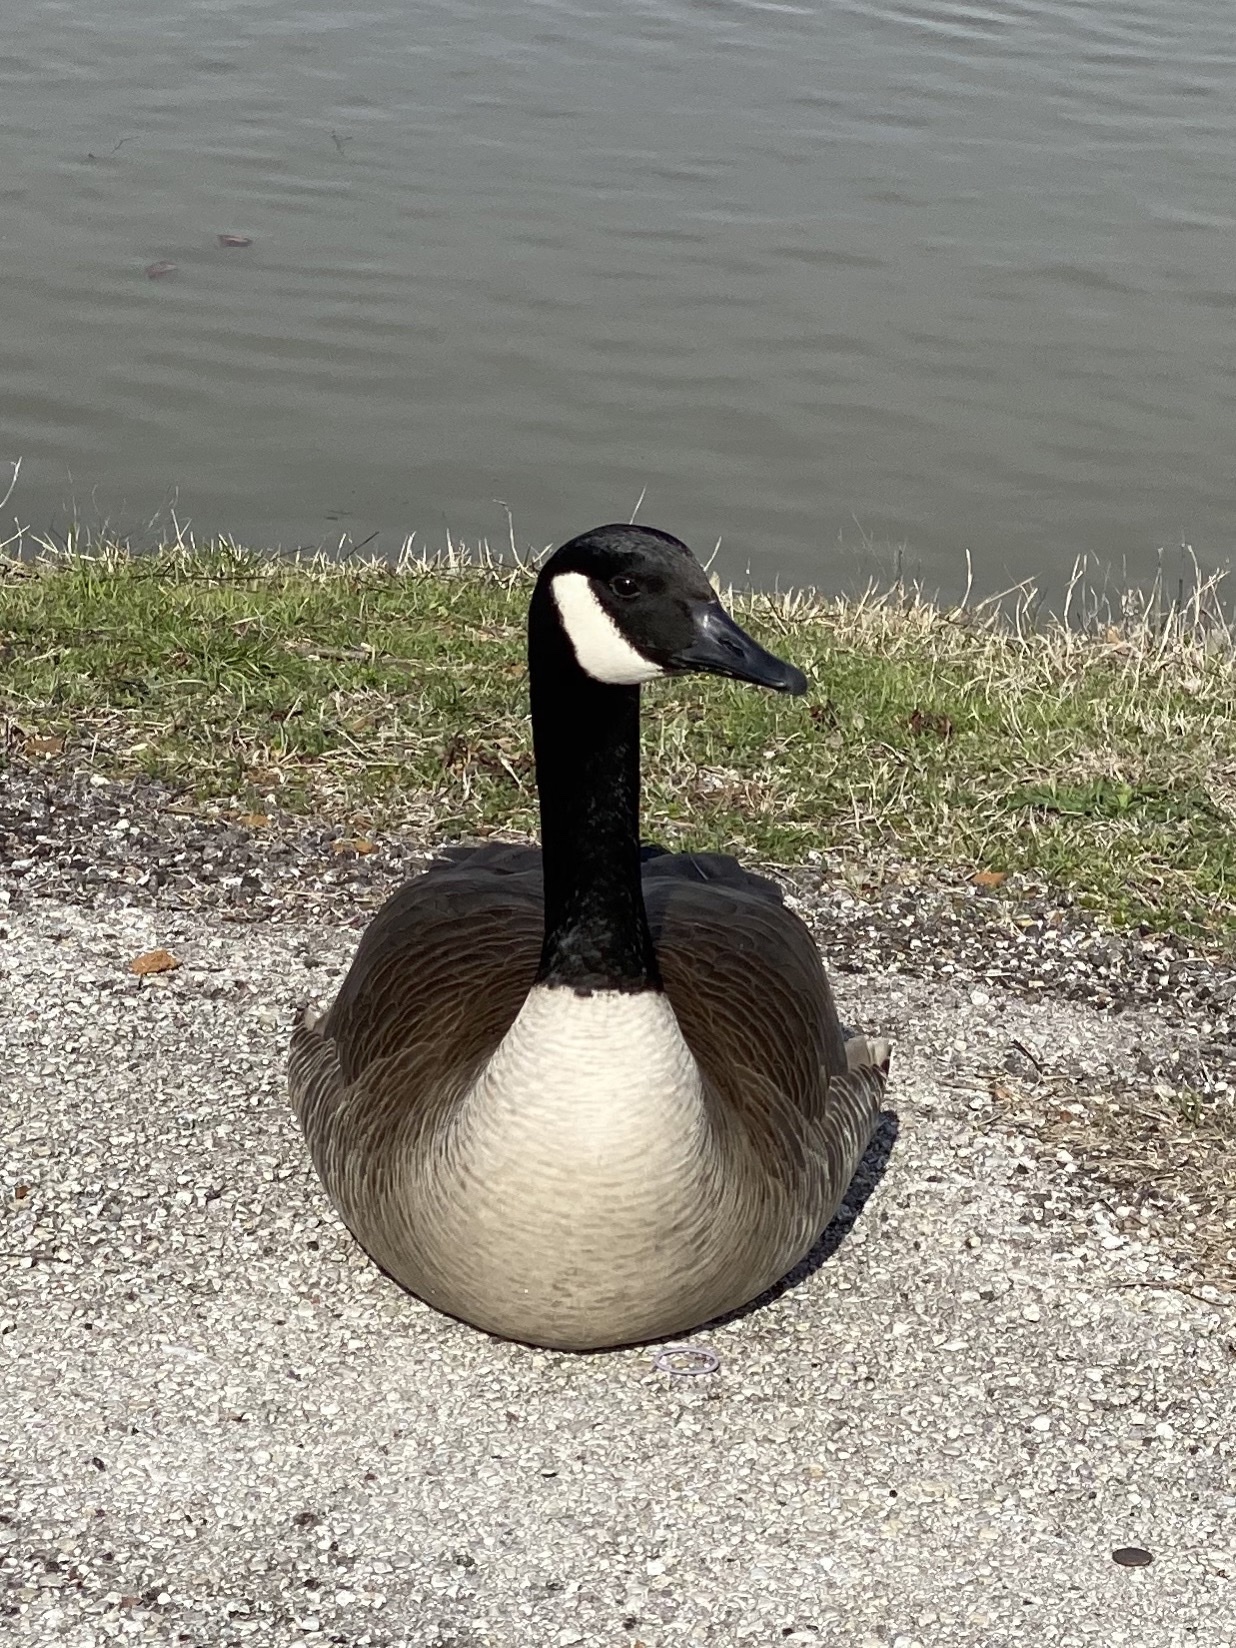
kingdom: Animalia
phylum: Chordata
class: Aves
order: Anseriformes
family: Anatidae
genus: Branta
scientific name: Branta canadensis
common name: Canada goose
